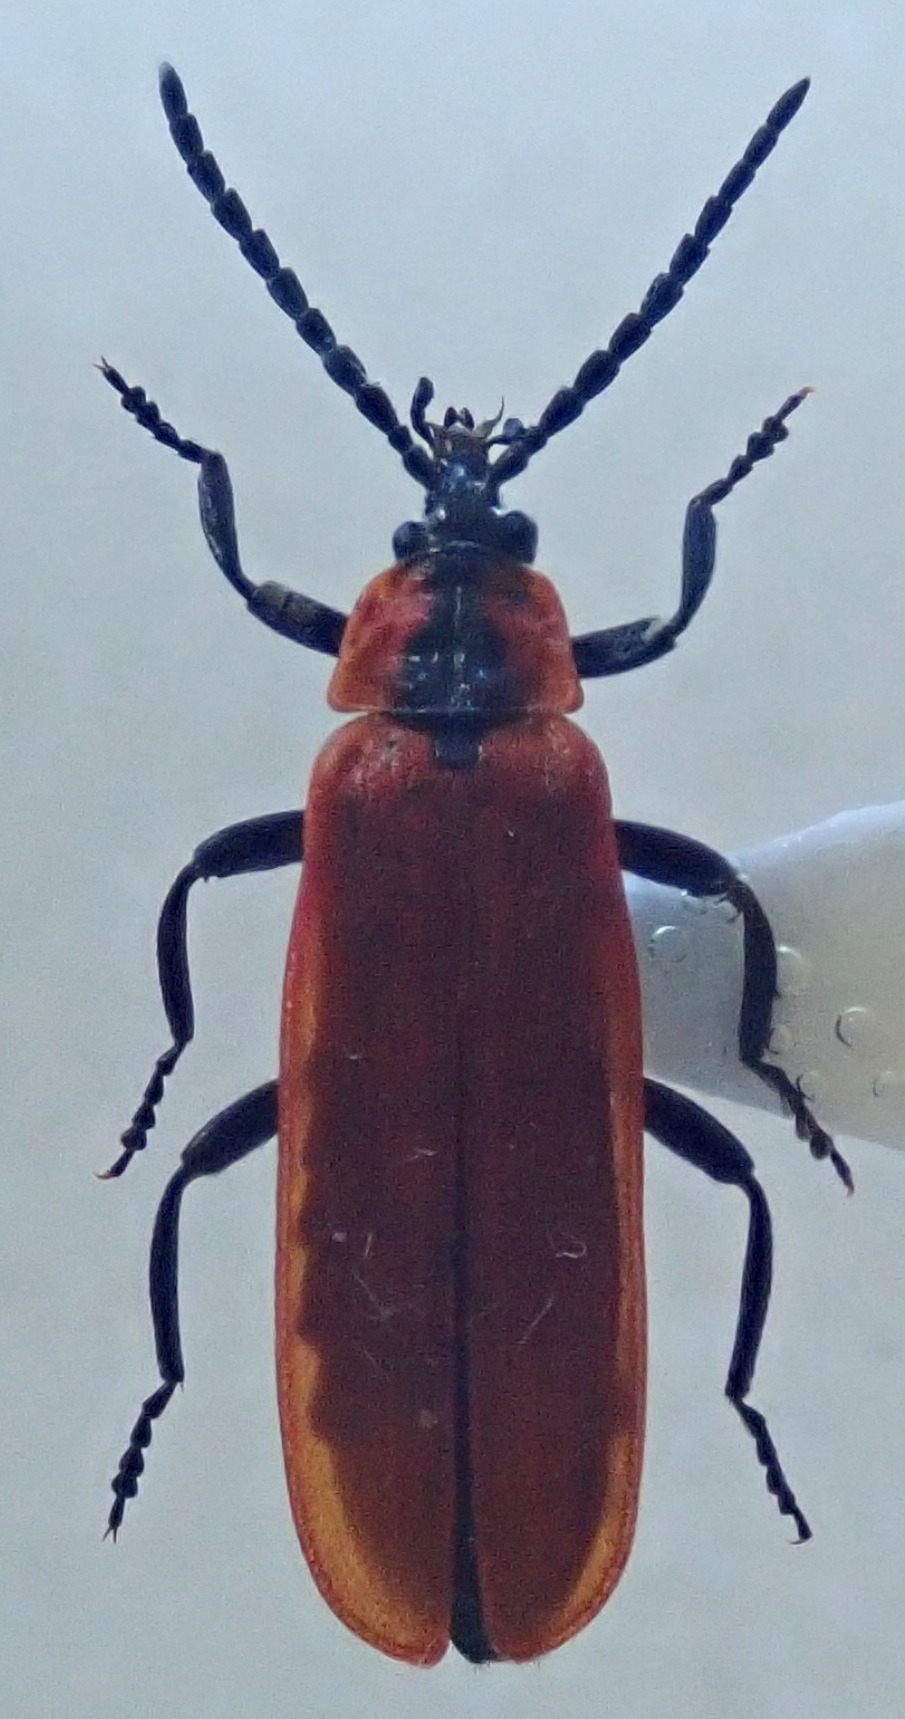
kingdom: Animalia
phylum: Arthropoda
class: Insecta
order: Coleoptera
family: Lycidae
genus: Lygistopterus
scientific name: Lygistopterus sanguineus
